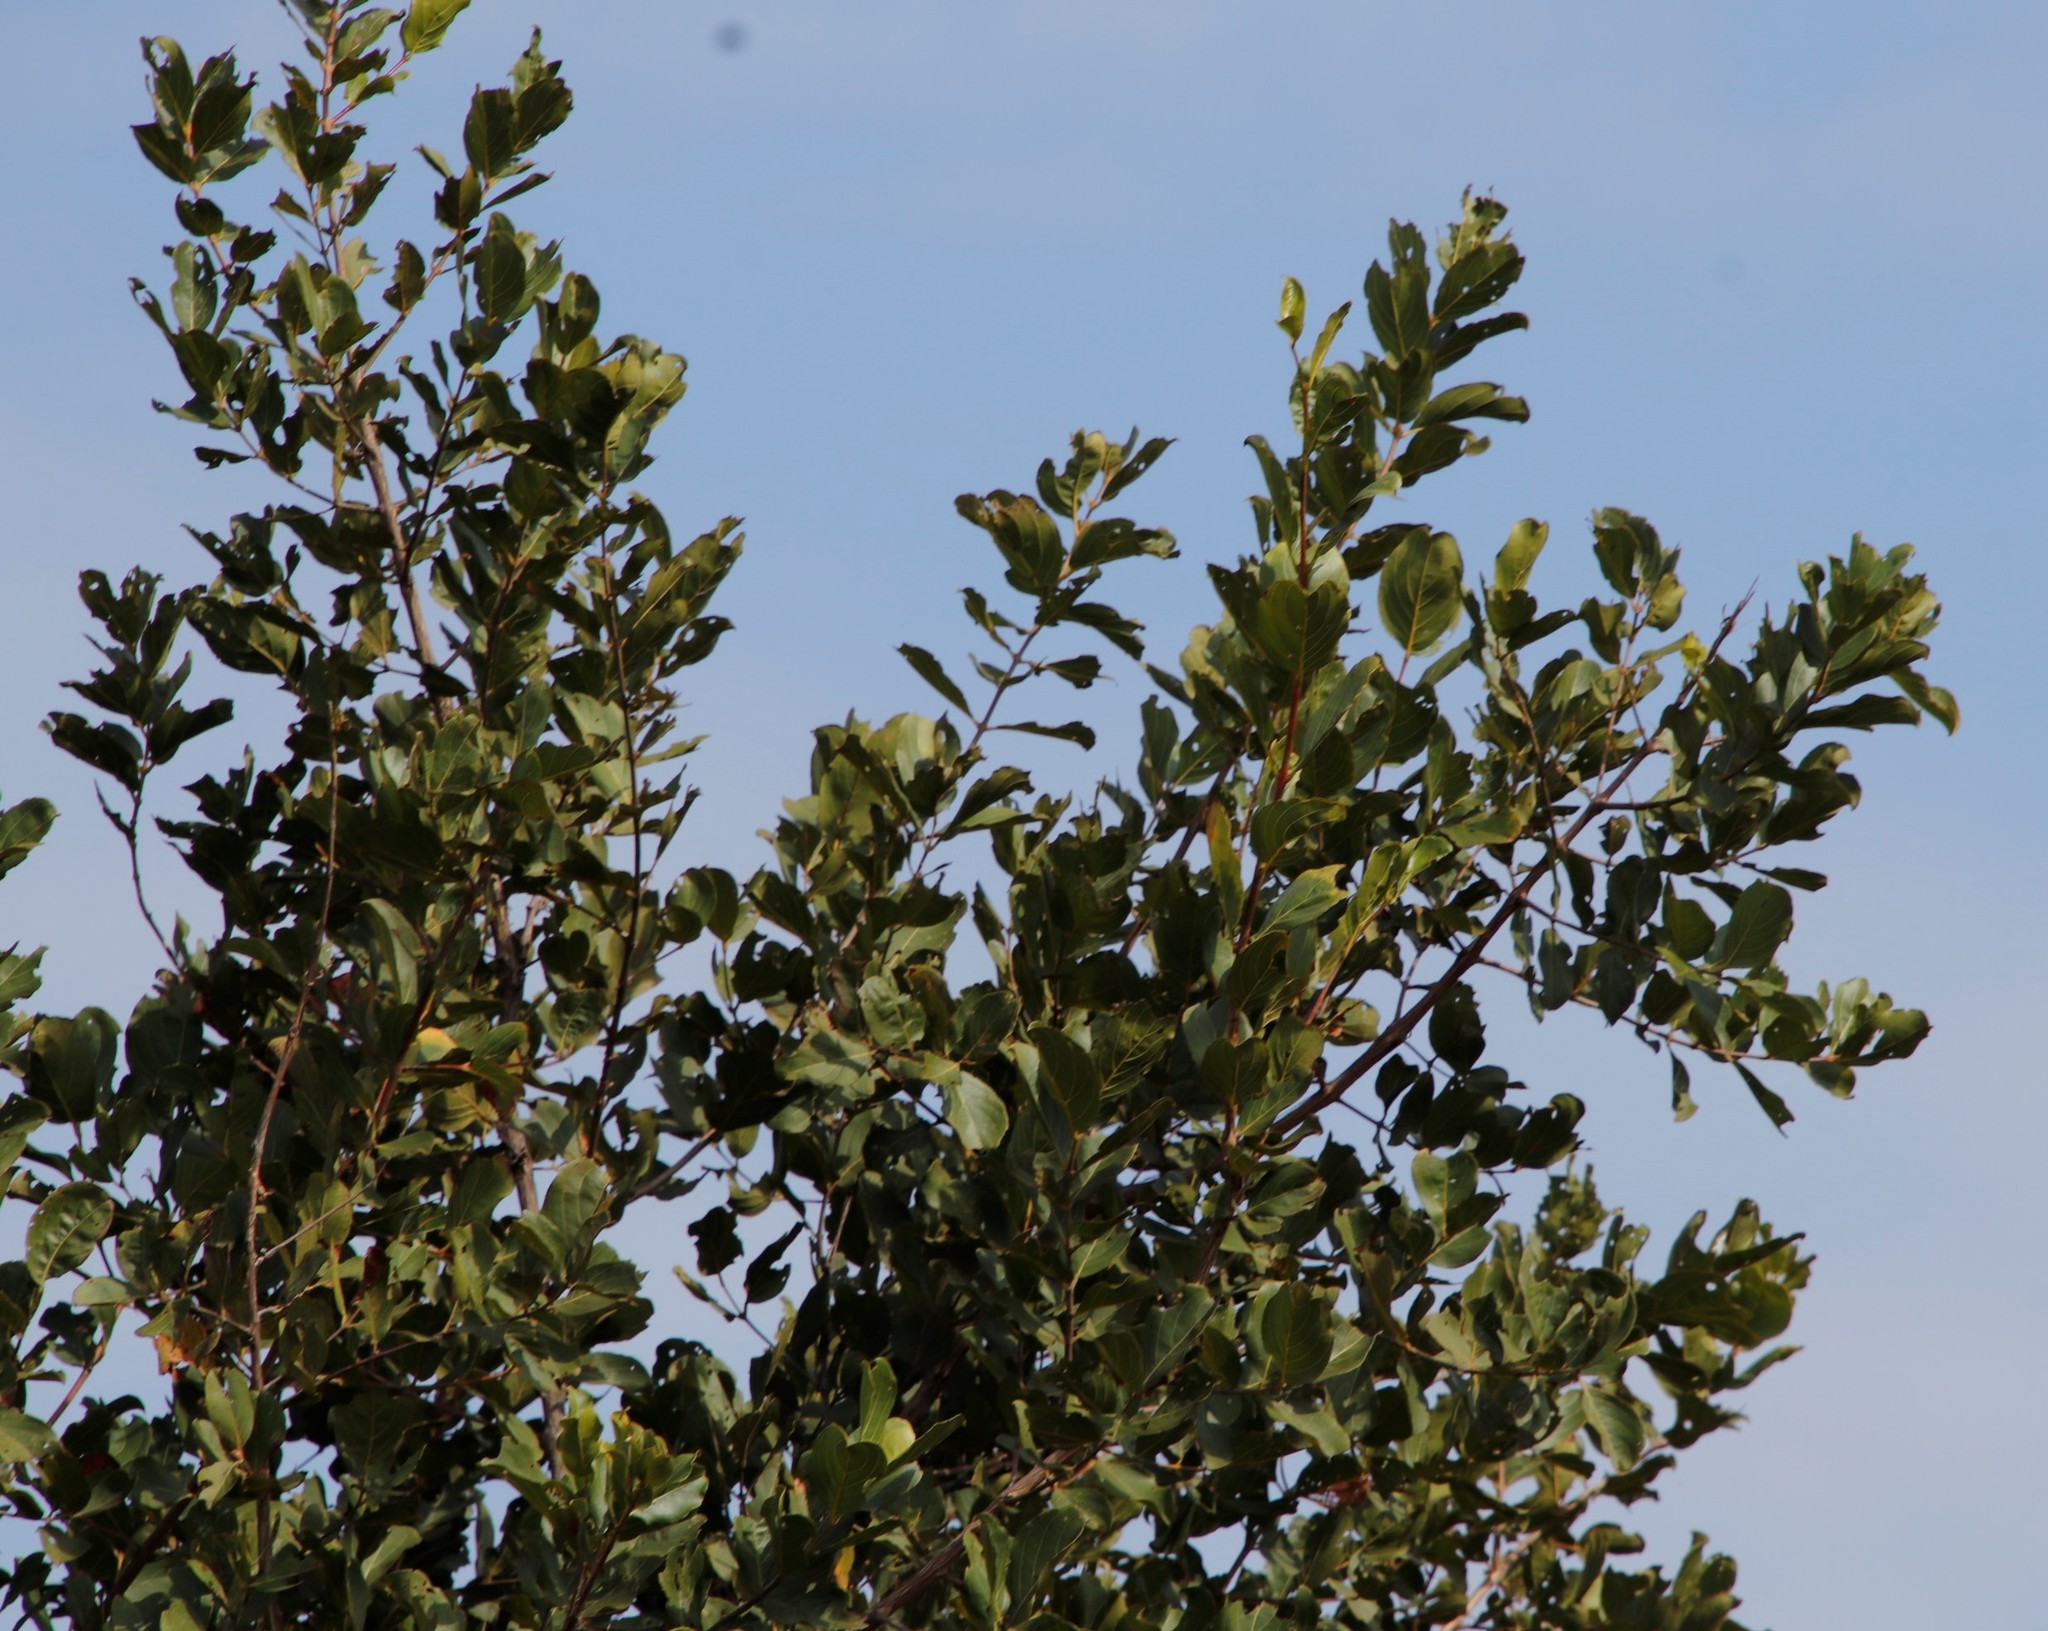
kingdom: Plantae
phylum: Tracheophyta
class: Magnoliopsida
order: Myrtales
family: Combretaceae
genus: Combretum
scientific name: Combretum apiculatum
